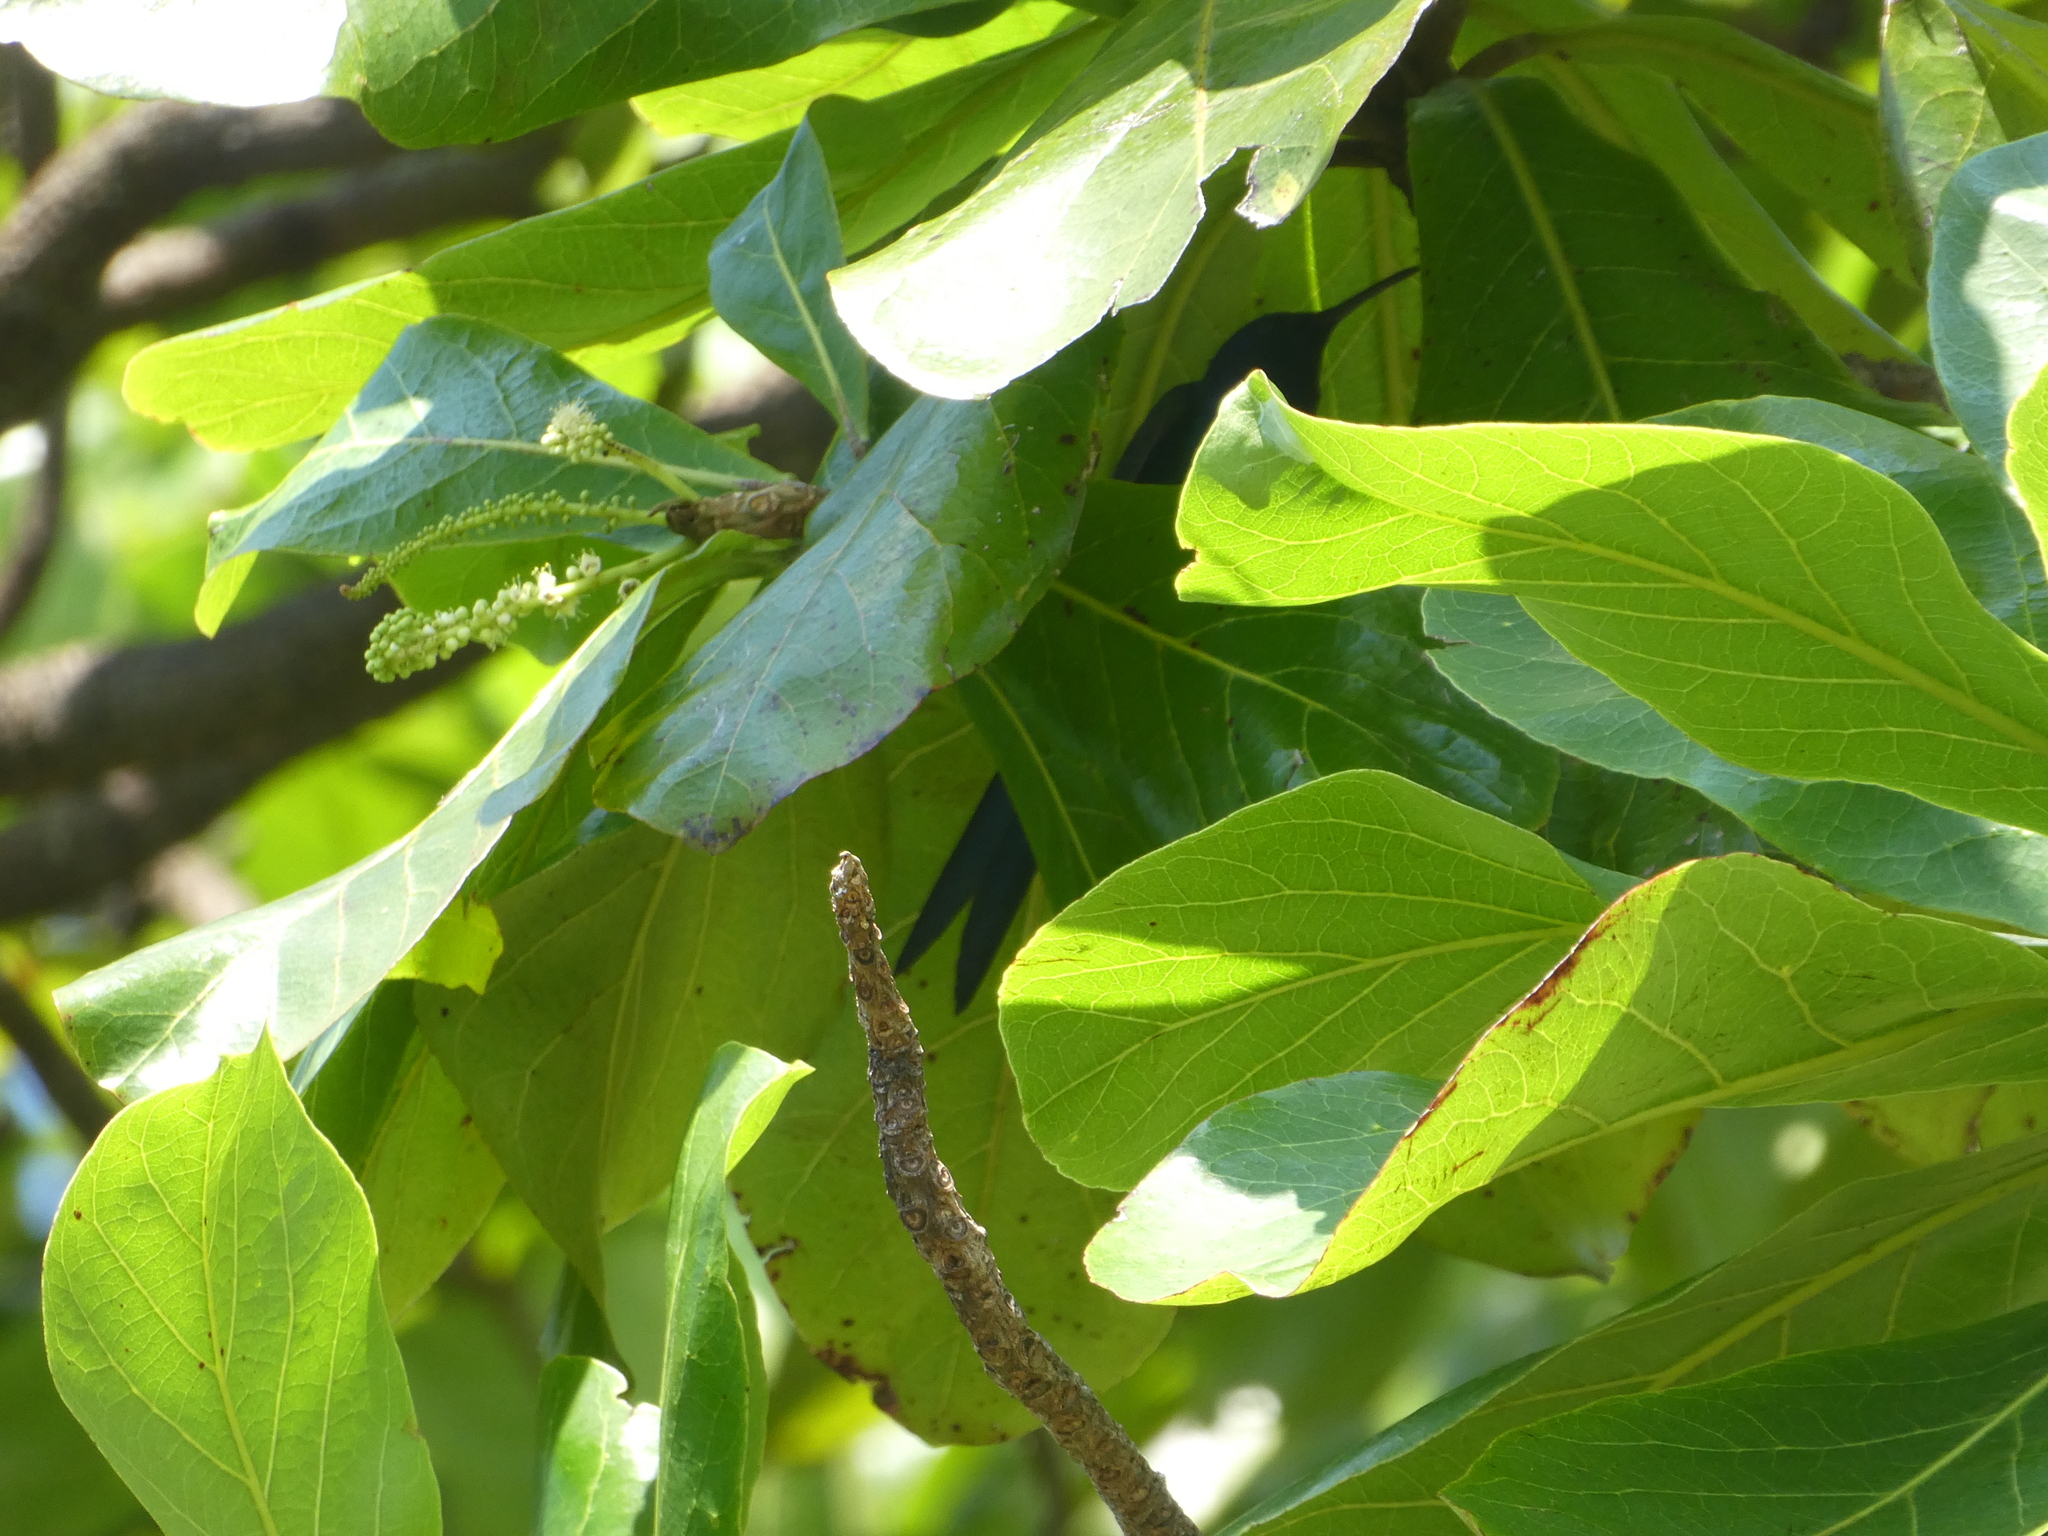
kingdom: Animalia
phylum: Chordata
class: Aves
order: Apodiformes
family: Trochilidae
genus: Eupetomena
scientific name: Eupetomena macroura
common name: Swallow-tailed hummingbird
